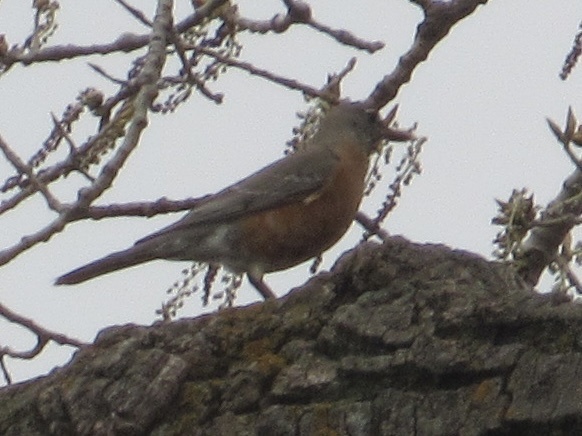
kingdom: Animalia
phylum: Chordata
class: Aves
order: Passeriformes
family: Turdidae
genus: Turdus
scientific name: Turdus migratorius
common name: American robin
